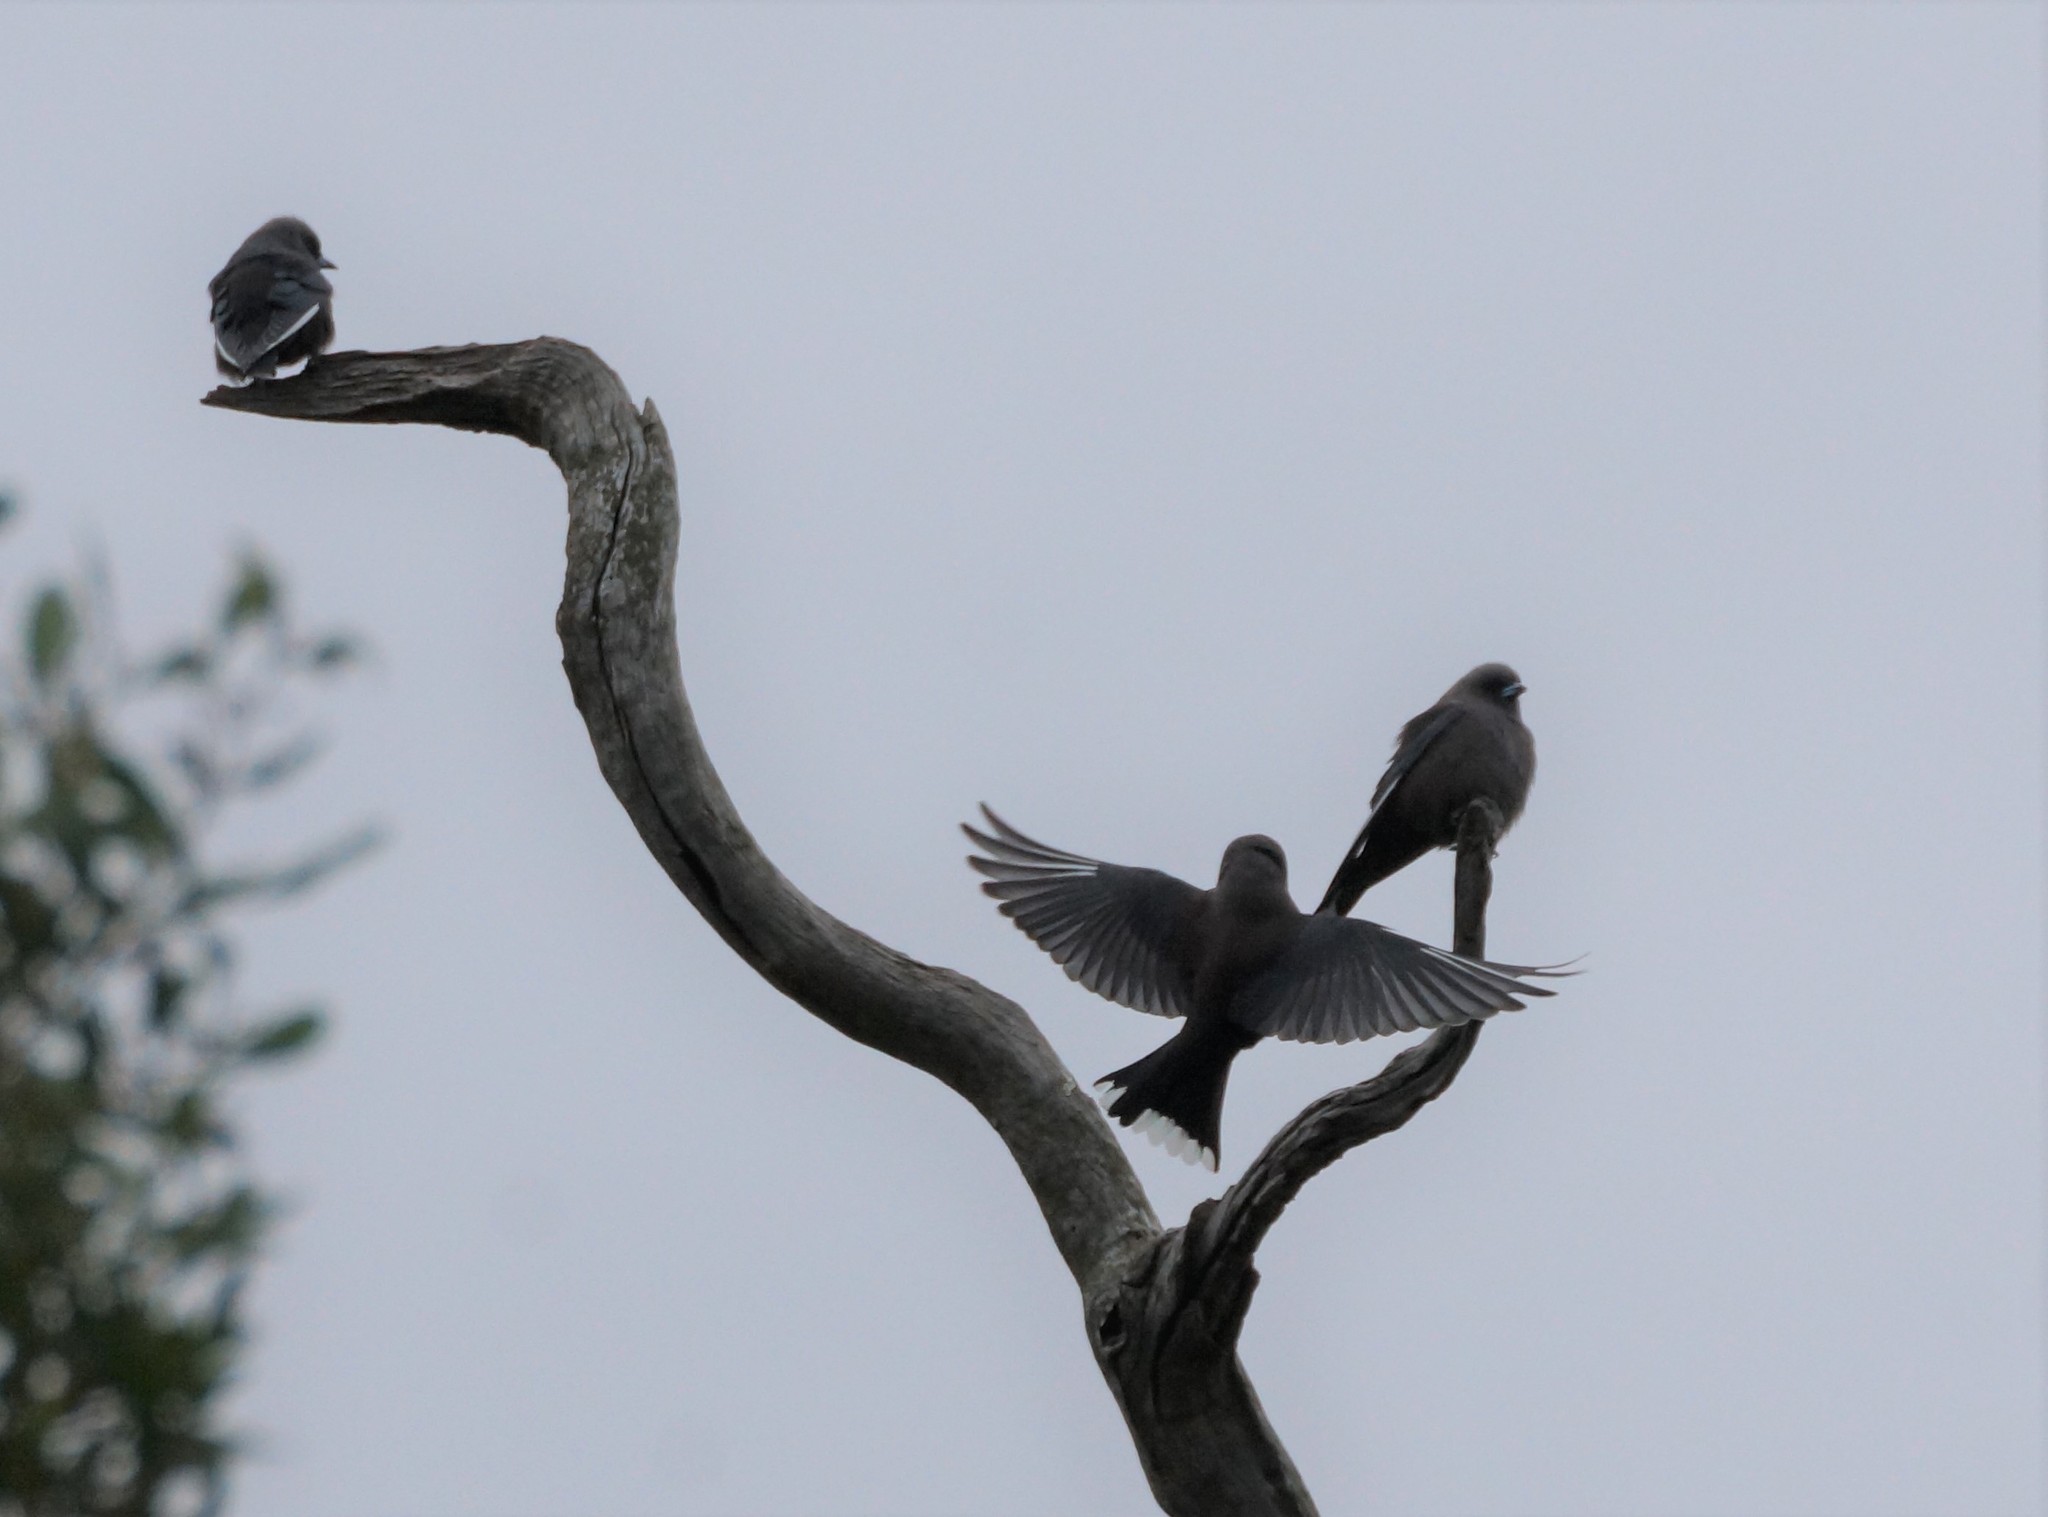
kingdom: Animalia
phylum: Chordata
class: Aves
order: Passeriformes
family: Artamidae
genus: Artamus
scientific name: Artamus cyanopterus
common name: Dusky woodswallow
